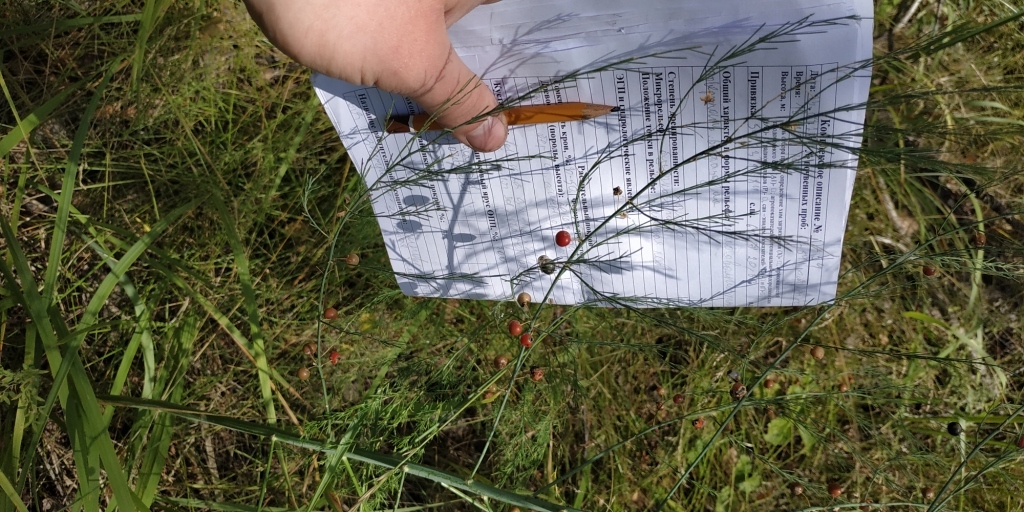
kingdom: Plantae
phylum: Tracheophyta
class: Liliopsida
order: Asparagales
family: Asparagaceae
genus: Asparagus
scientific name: Asparagus officinalis
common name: Garden asparagus
